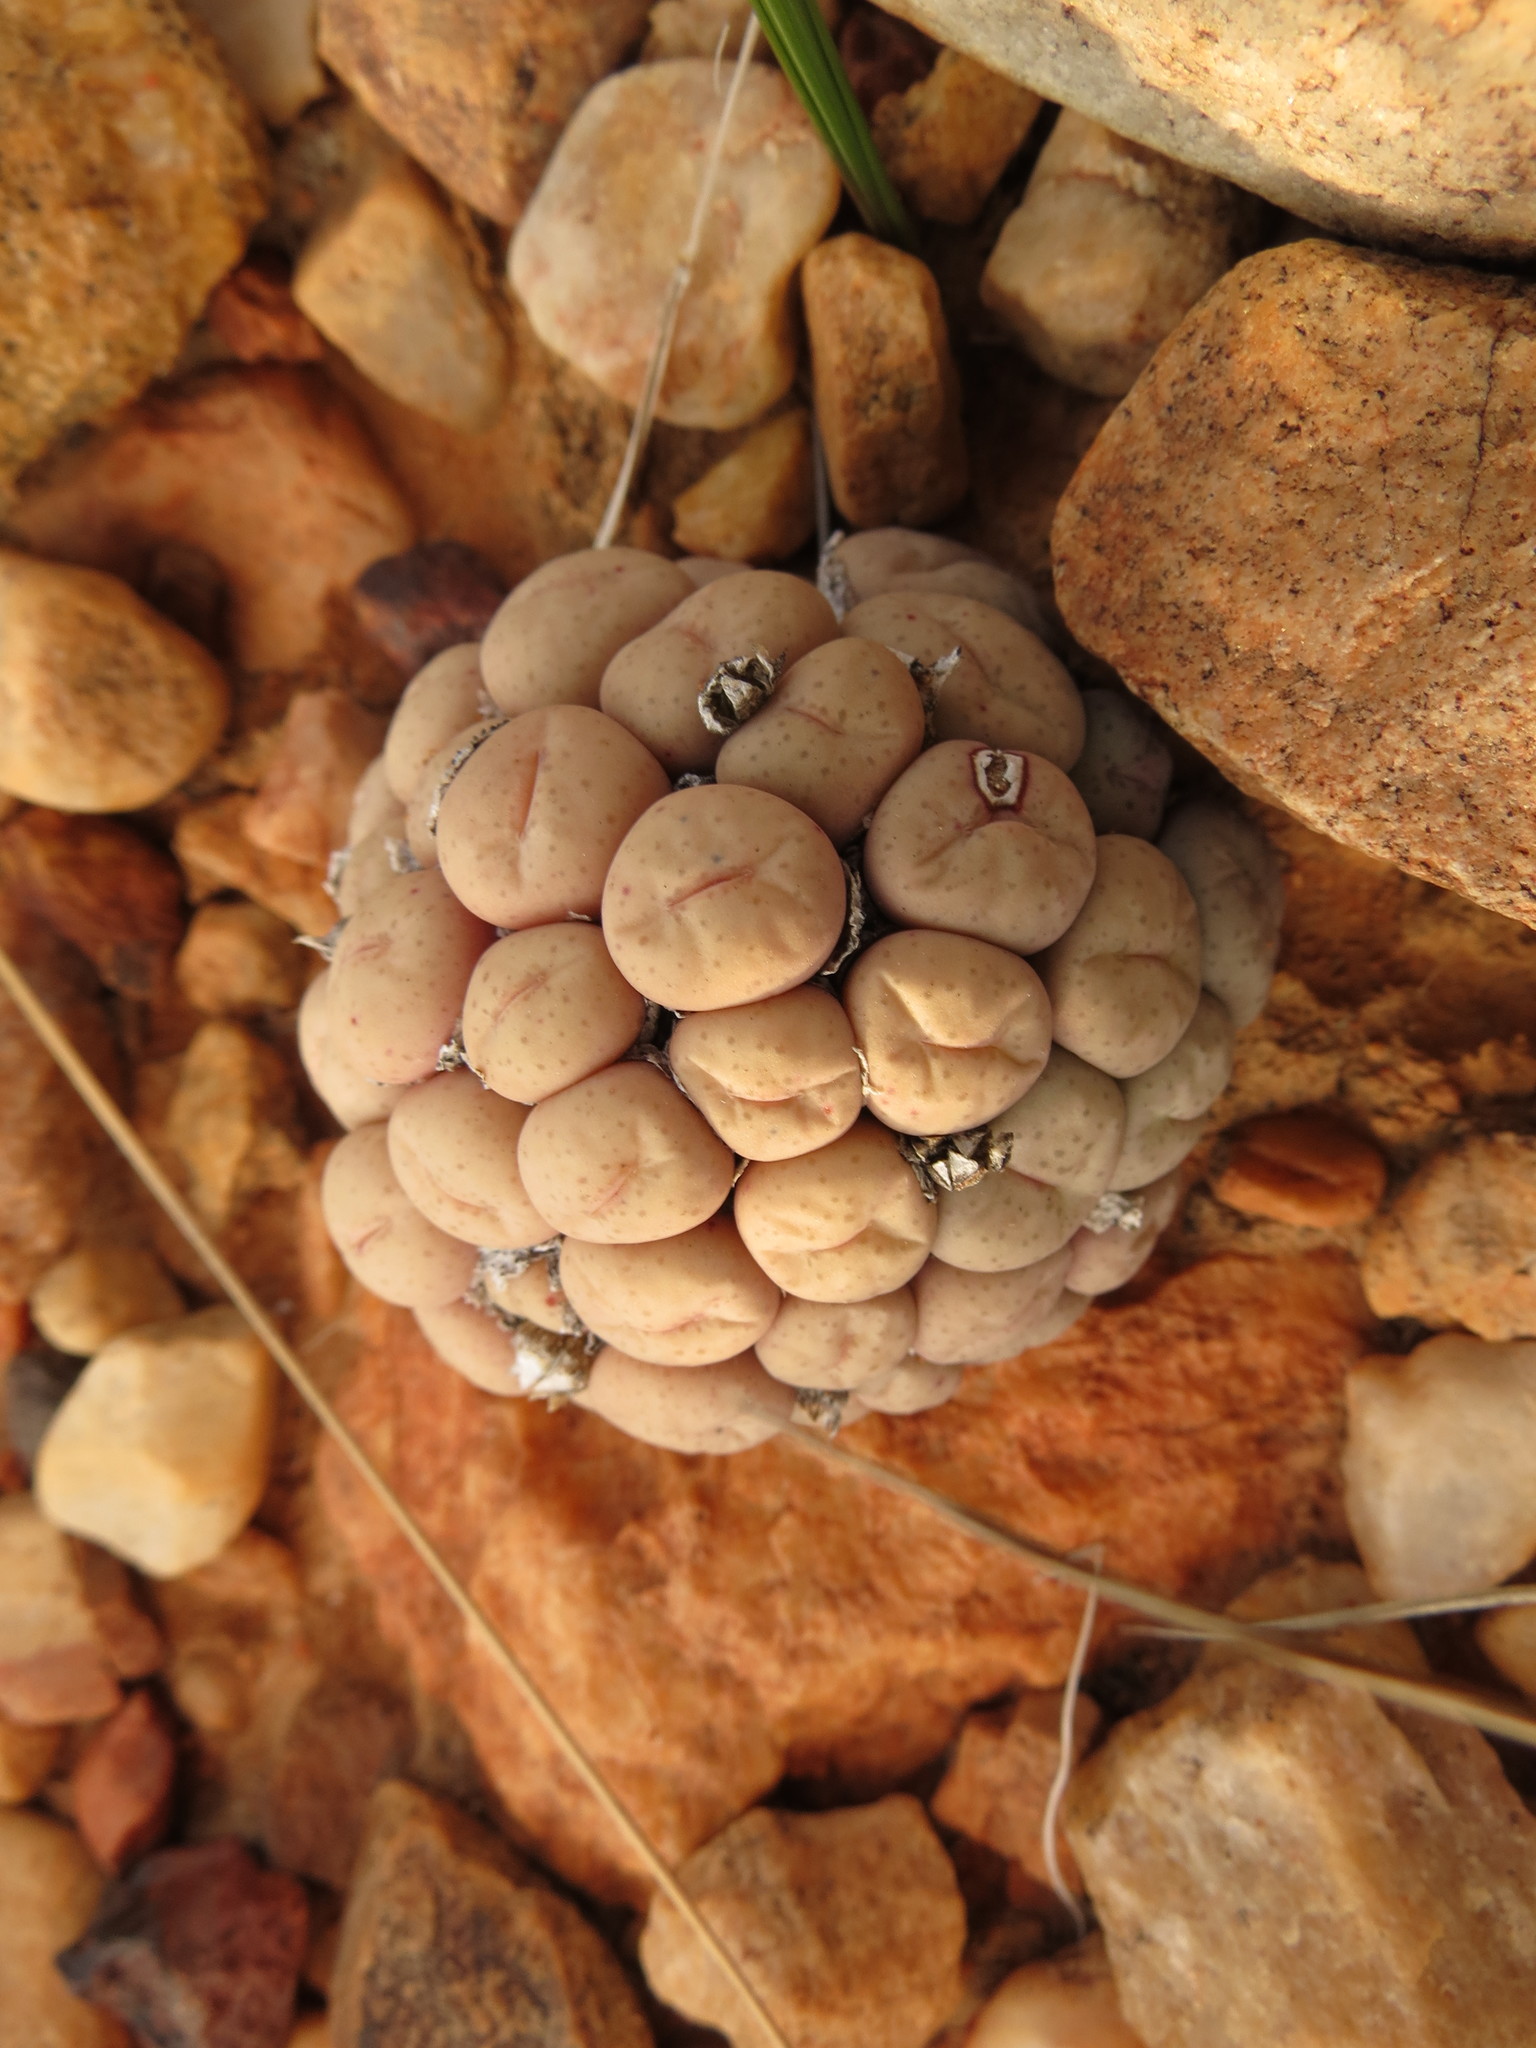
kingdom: Plantae
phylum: Tracheophyta
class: Magnoliopsida
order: Caryophyllales
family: Aizoaceae
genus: Conophytum
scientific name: Conophytum truncatum
